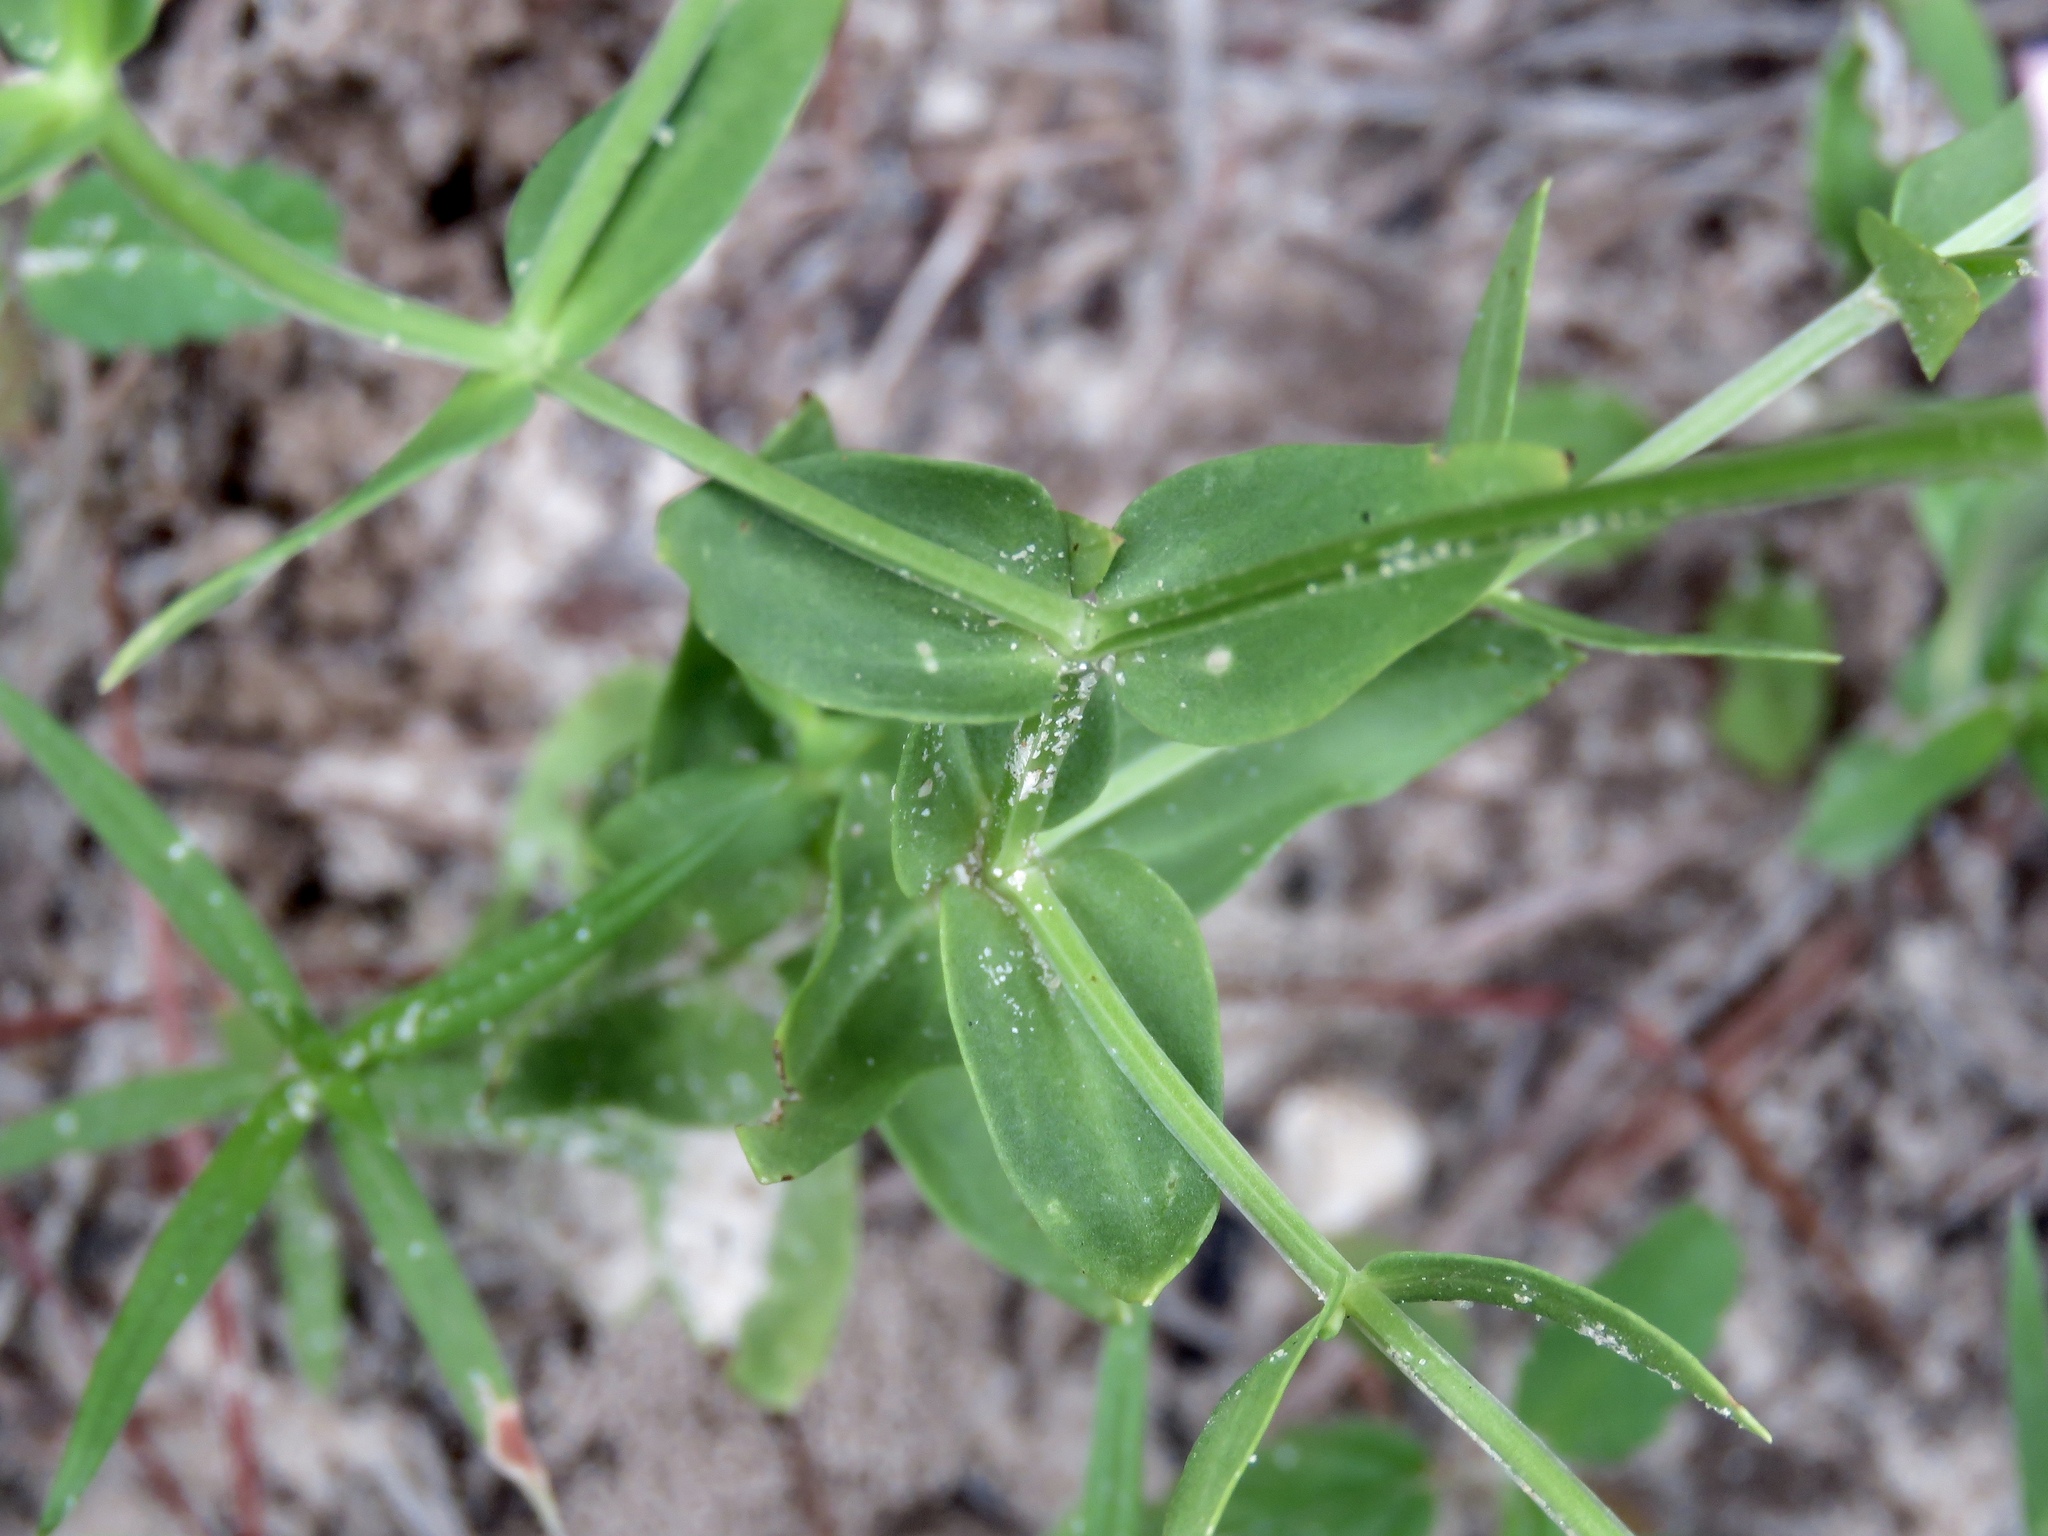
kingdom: Plantae
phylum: Tracheophyta
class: Magnoliopsida
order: Gentianales
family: Gentianaceae
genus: Sabatia
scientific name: Sabatia campestris
